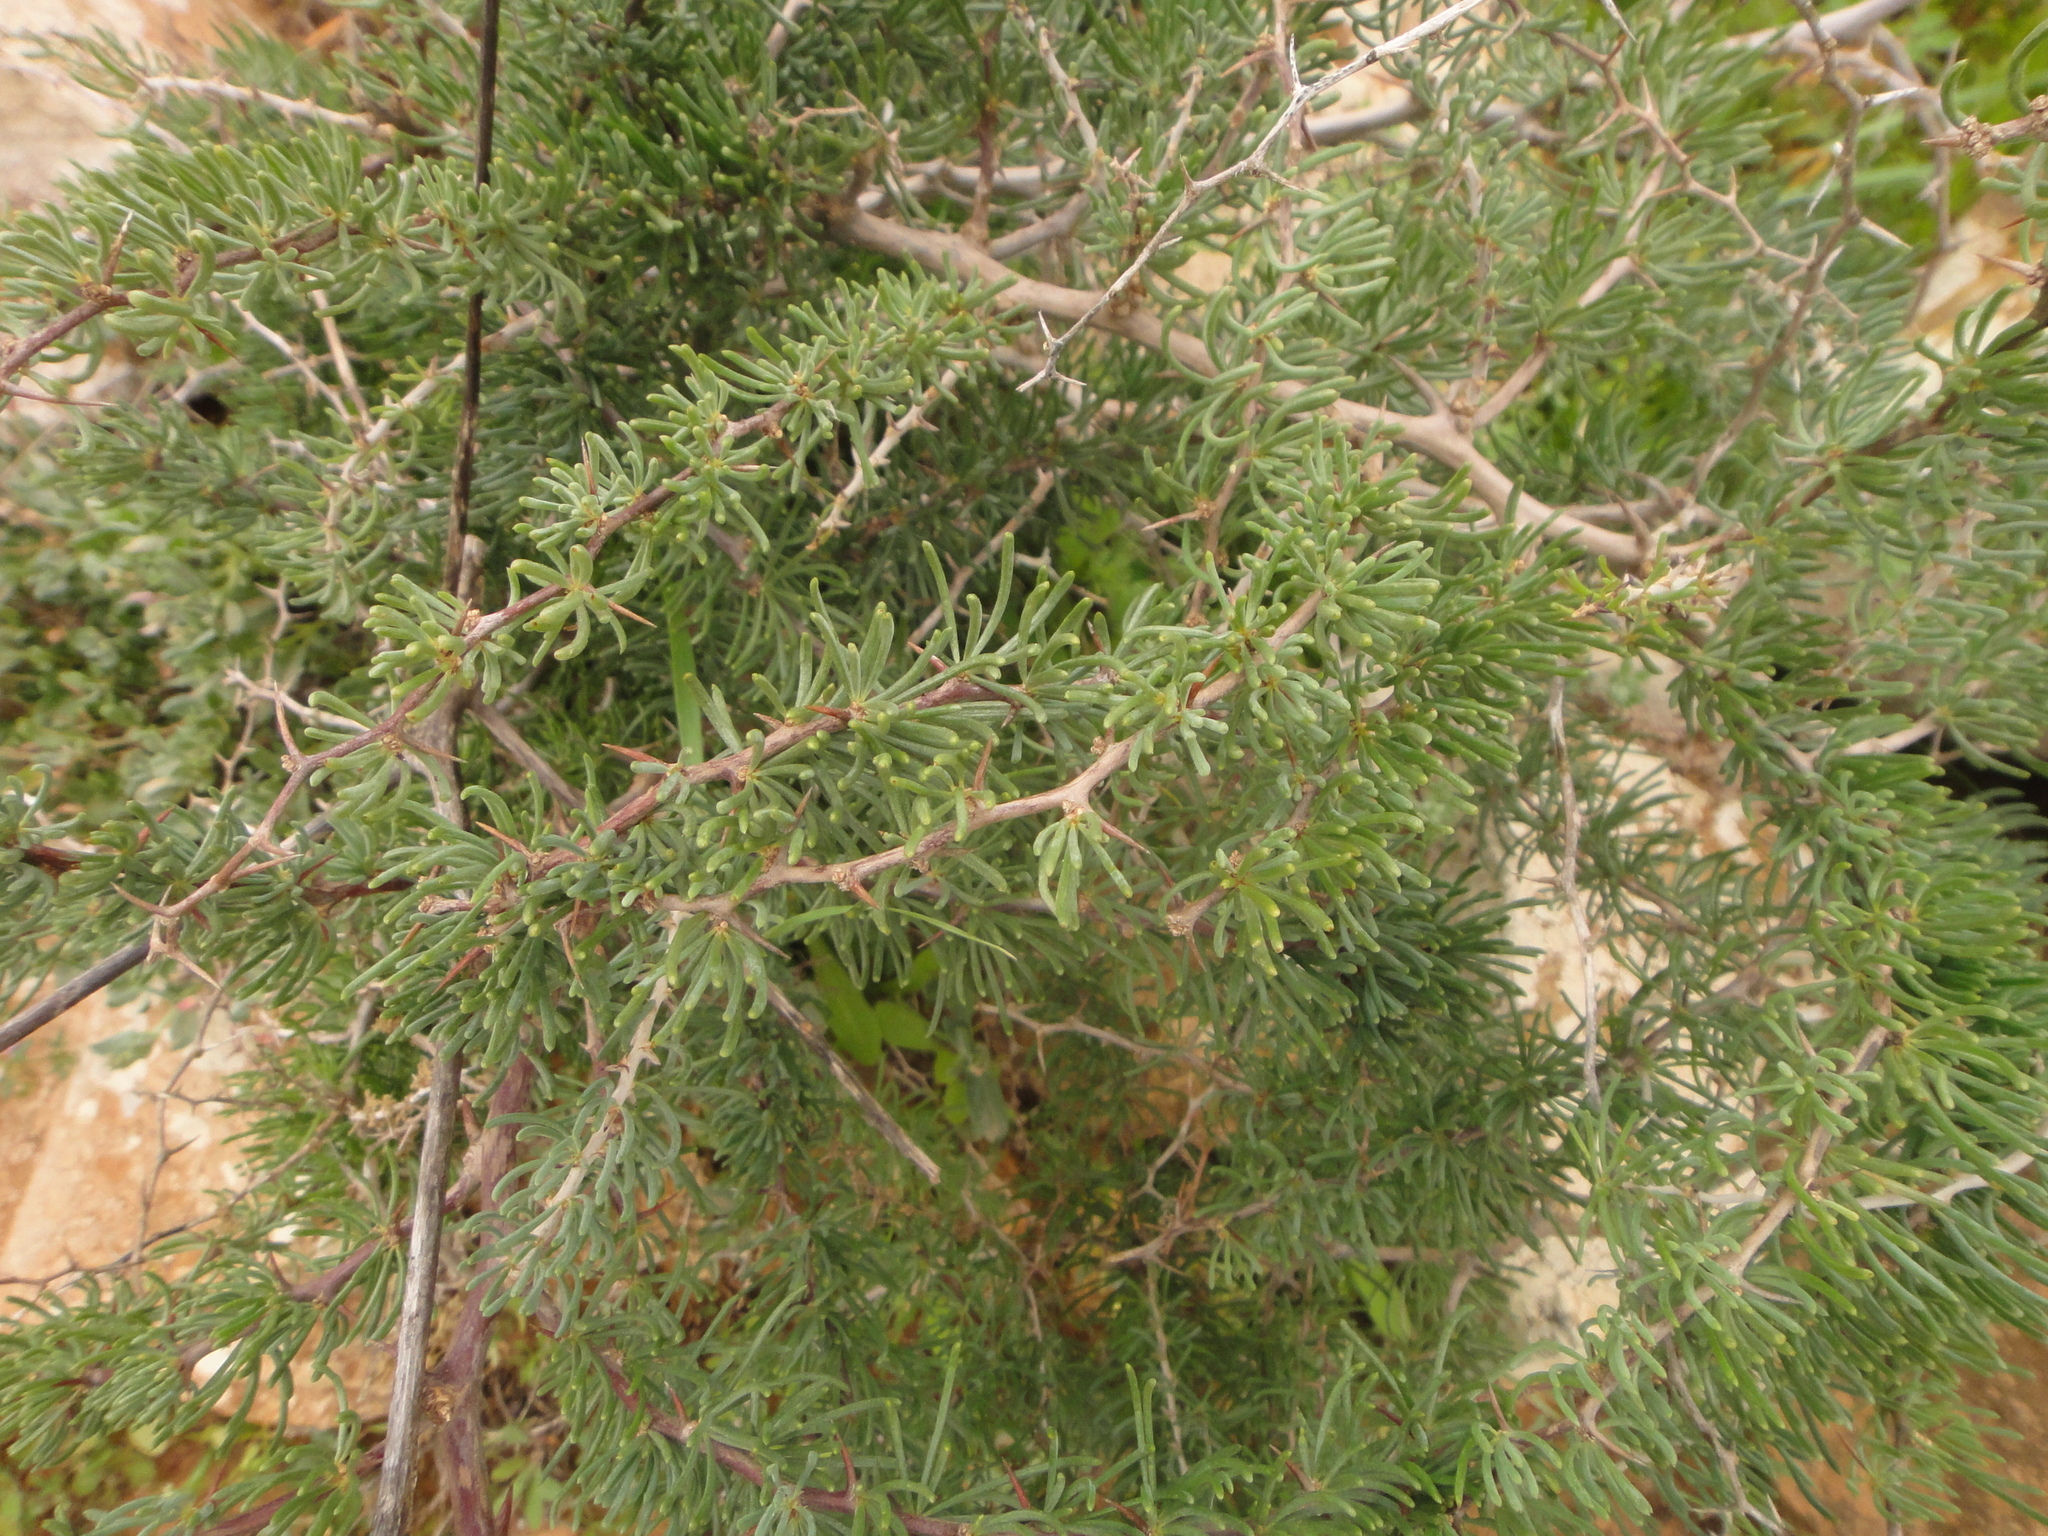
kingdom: Plantae
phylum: Tracheophyta
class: Liliopsida
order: Asparagales
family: Asparagaceae
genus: Asparagus
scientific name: Asparagus pastorianus
